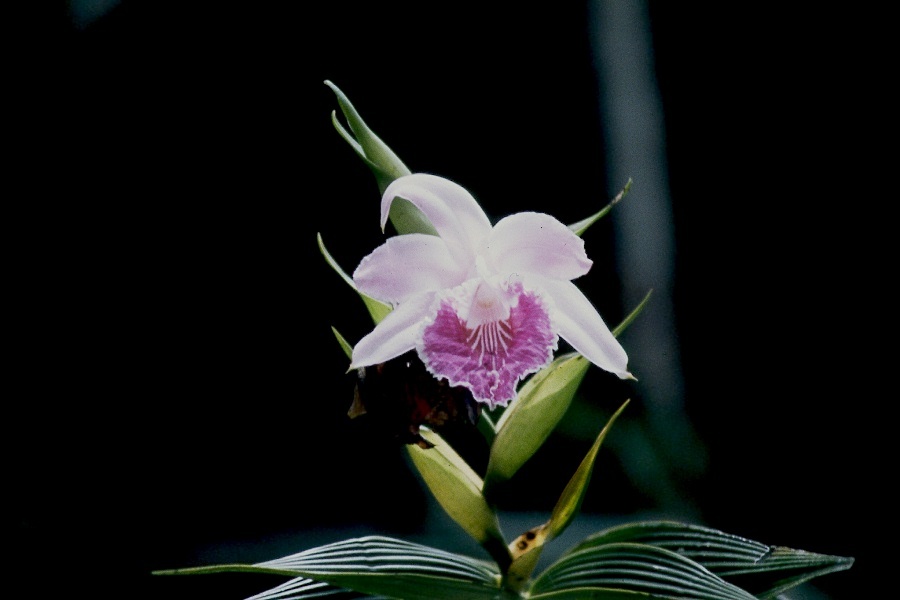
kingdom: Plantae
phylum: Tracheophyta
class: Liliopsida
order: Asparagales
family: Orchidaceae
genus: Sobralia
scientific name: Sobralia rosea
